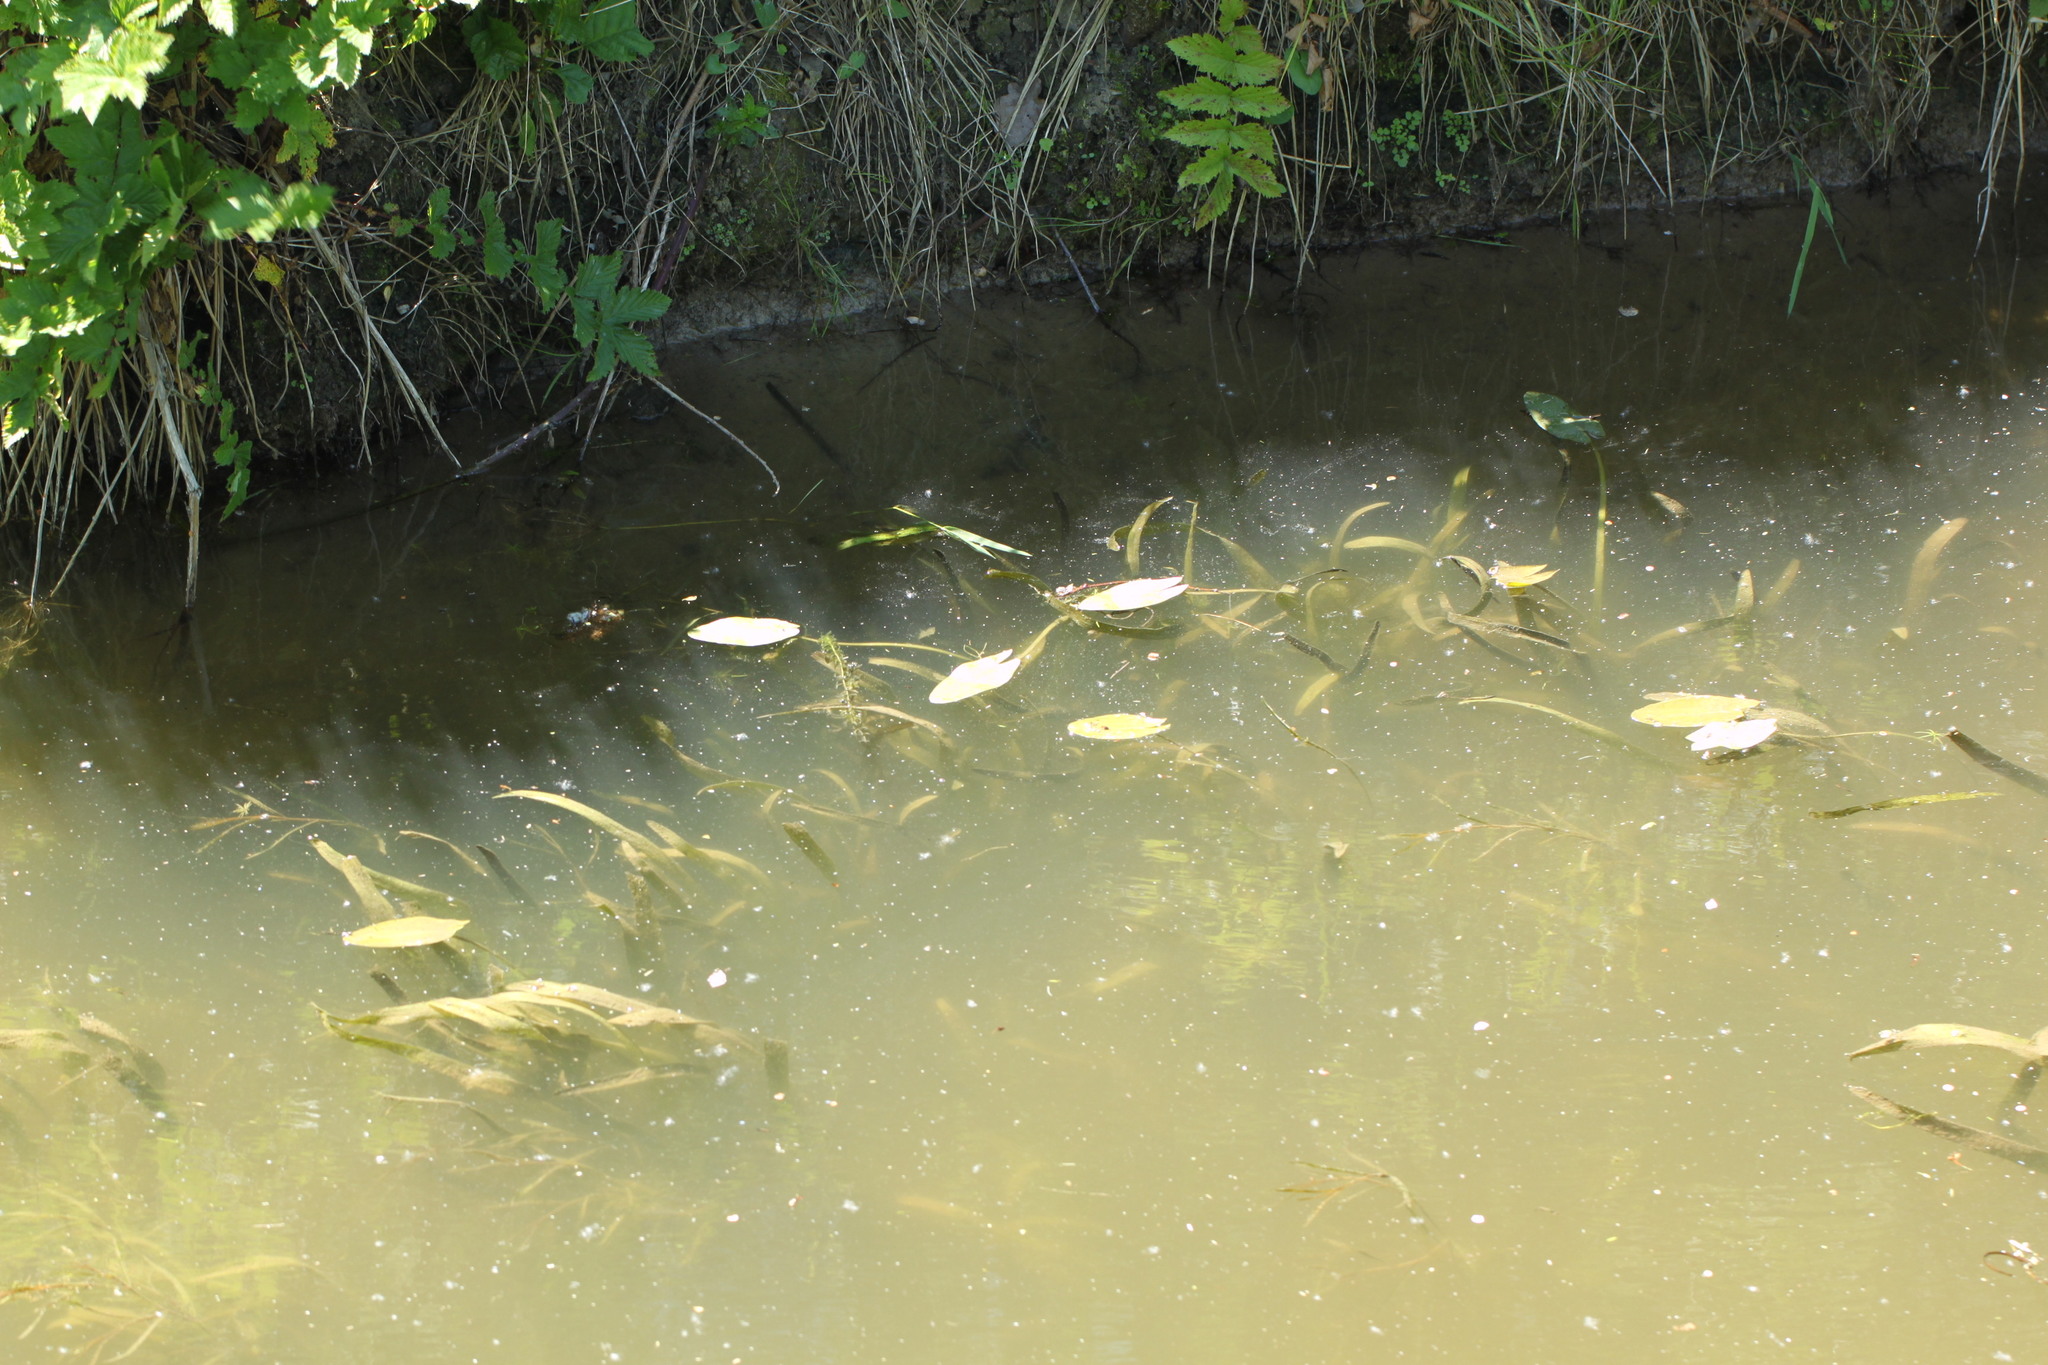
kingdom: Plantae
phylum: Tracheophyta
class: Liliopsida
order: Alismatales
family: Alismataceae
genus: Sagittaria
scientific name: Sagittaria sagittifolia
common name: Arrowhead
